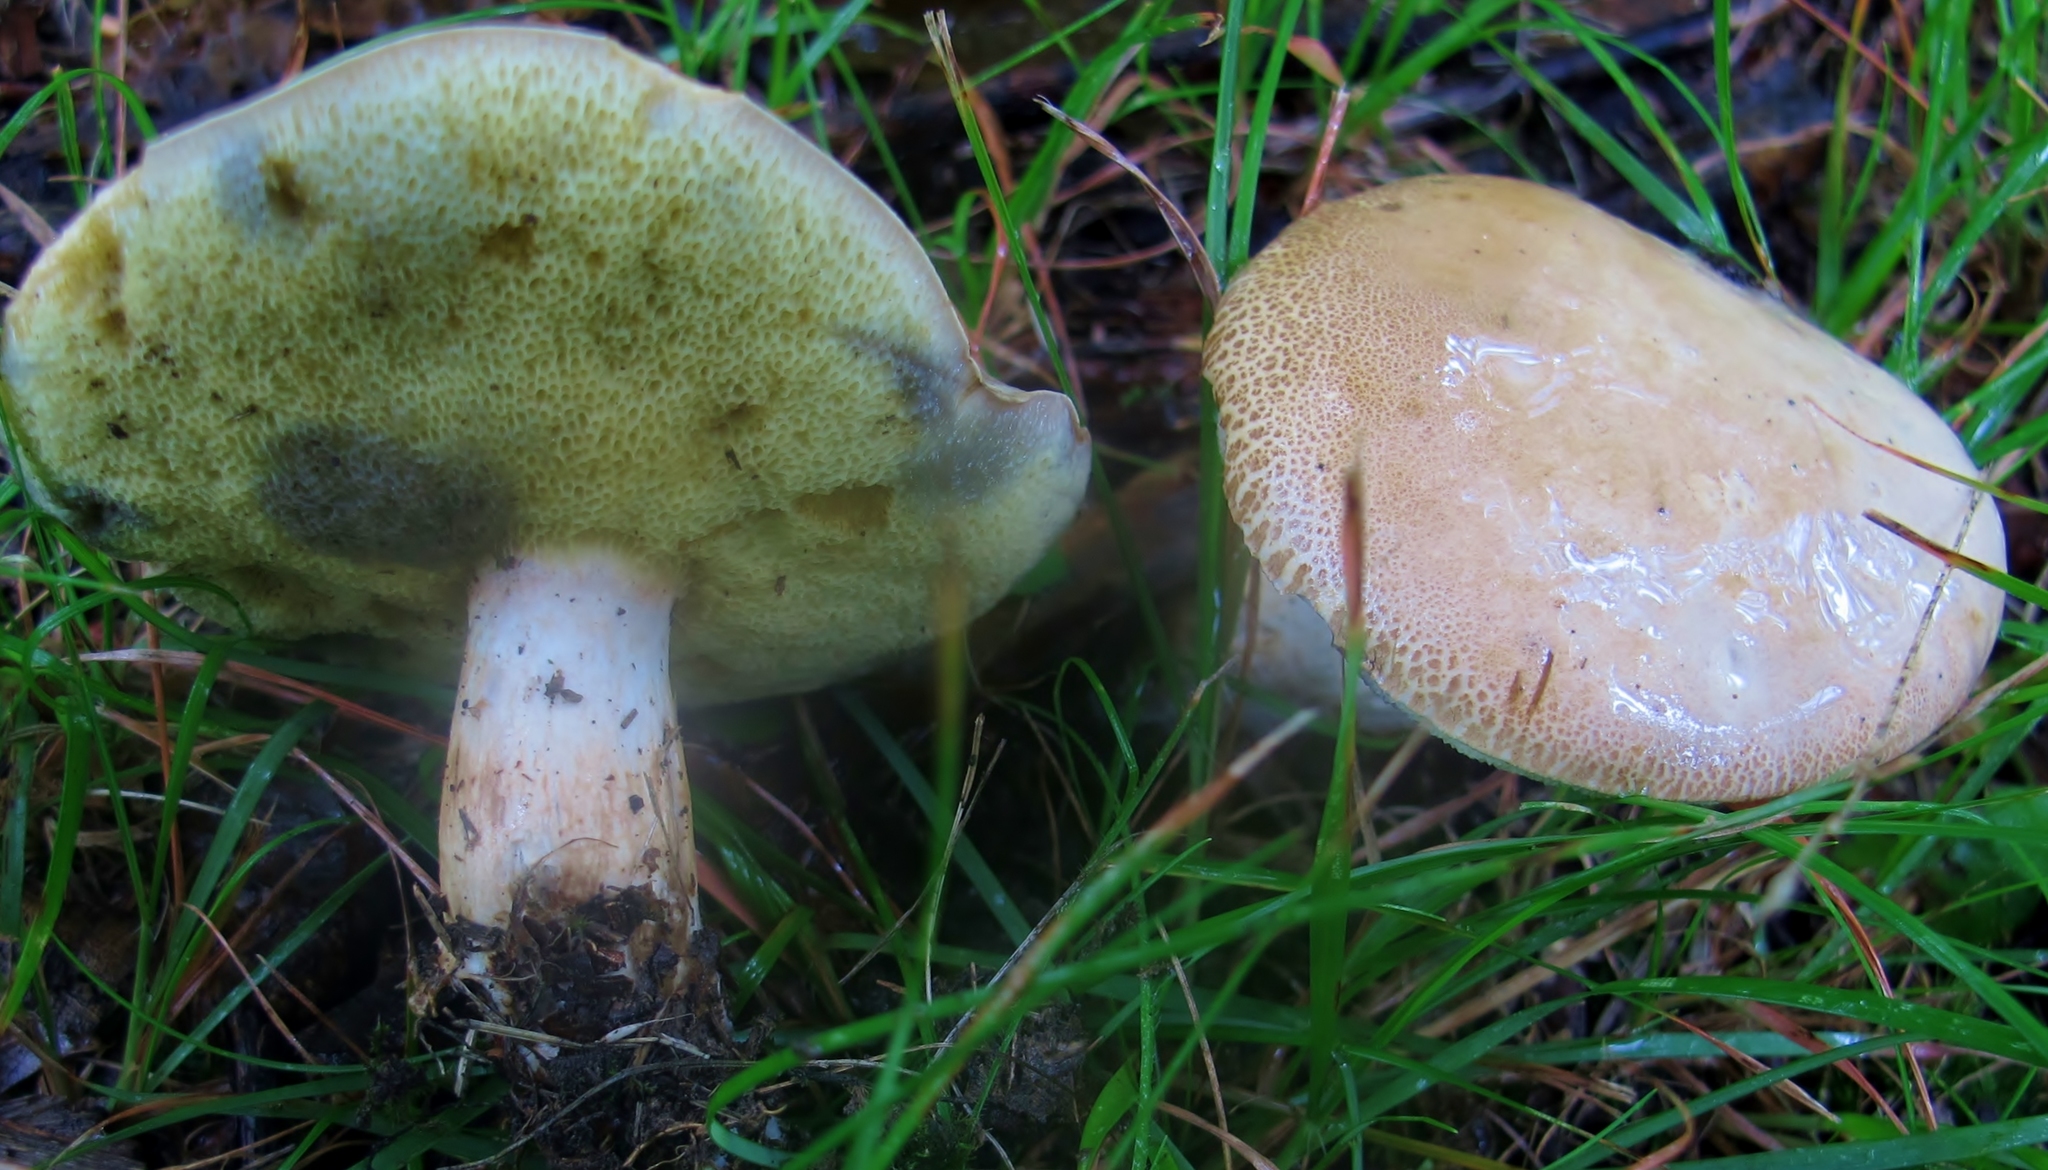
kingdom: Fungi
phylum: Basidiomycota
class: Agaricomycetes
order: Boletales
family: Boletaceae
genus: Imleria
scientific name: Imleria pallida
